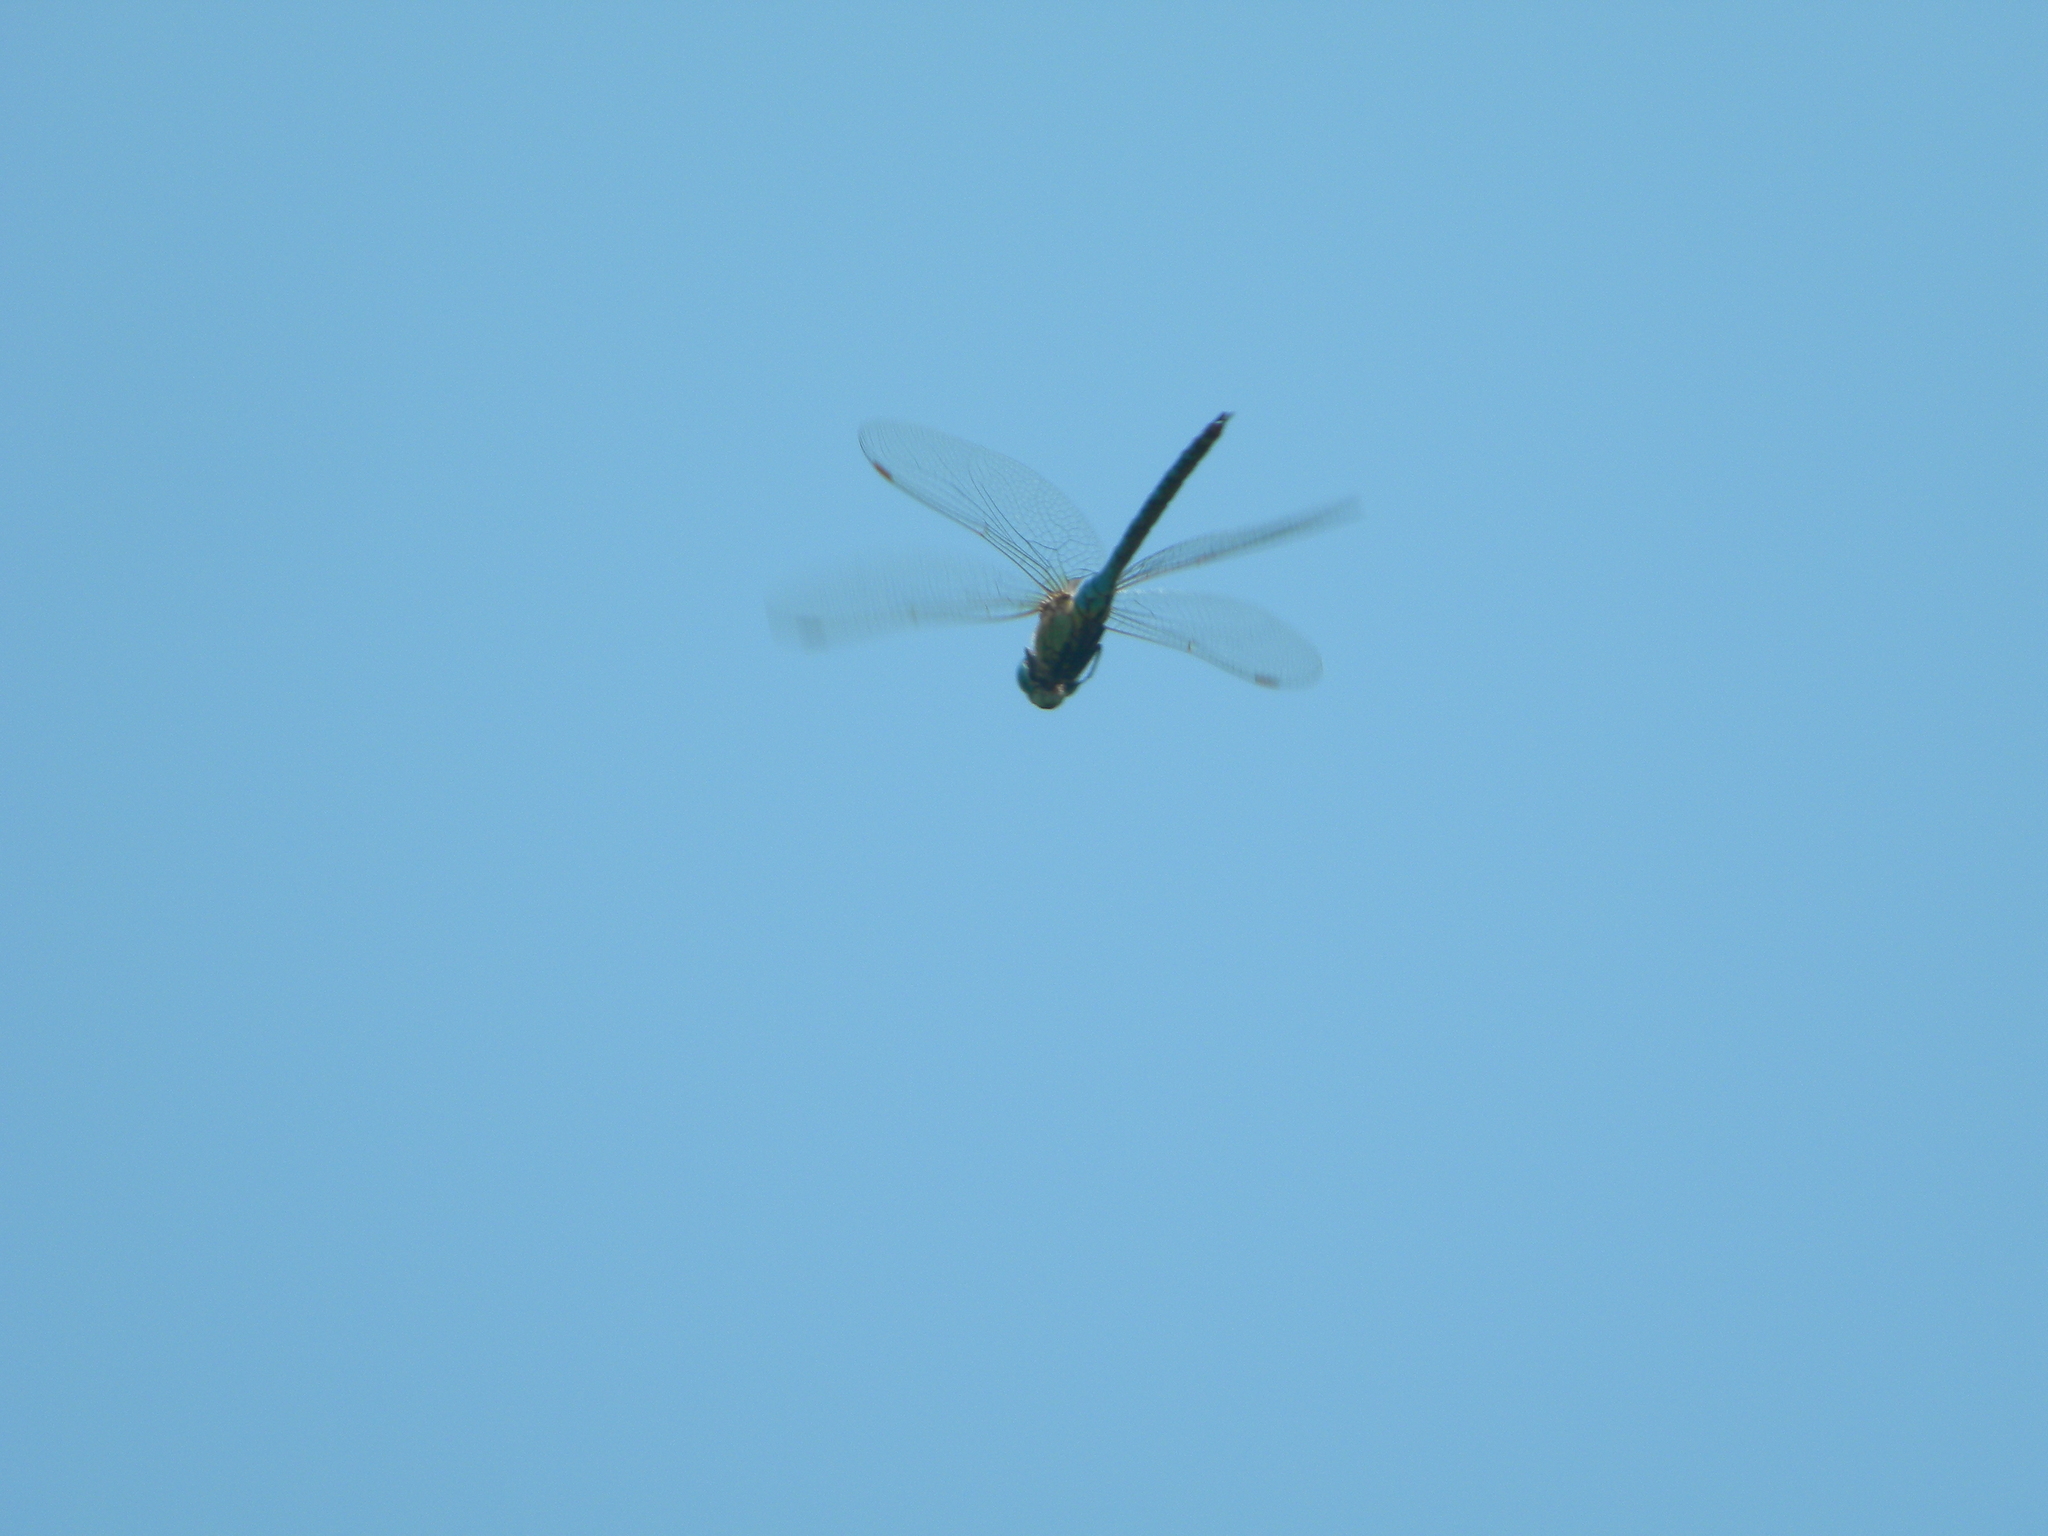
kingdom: Animalia
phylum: Arthropoda
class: Insecta
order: Odonata
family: Aeshnidae
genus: Aeshna
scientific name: Aeshna affinis
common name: Southern migrant hawker
